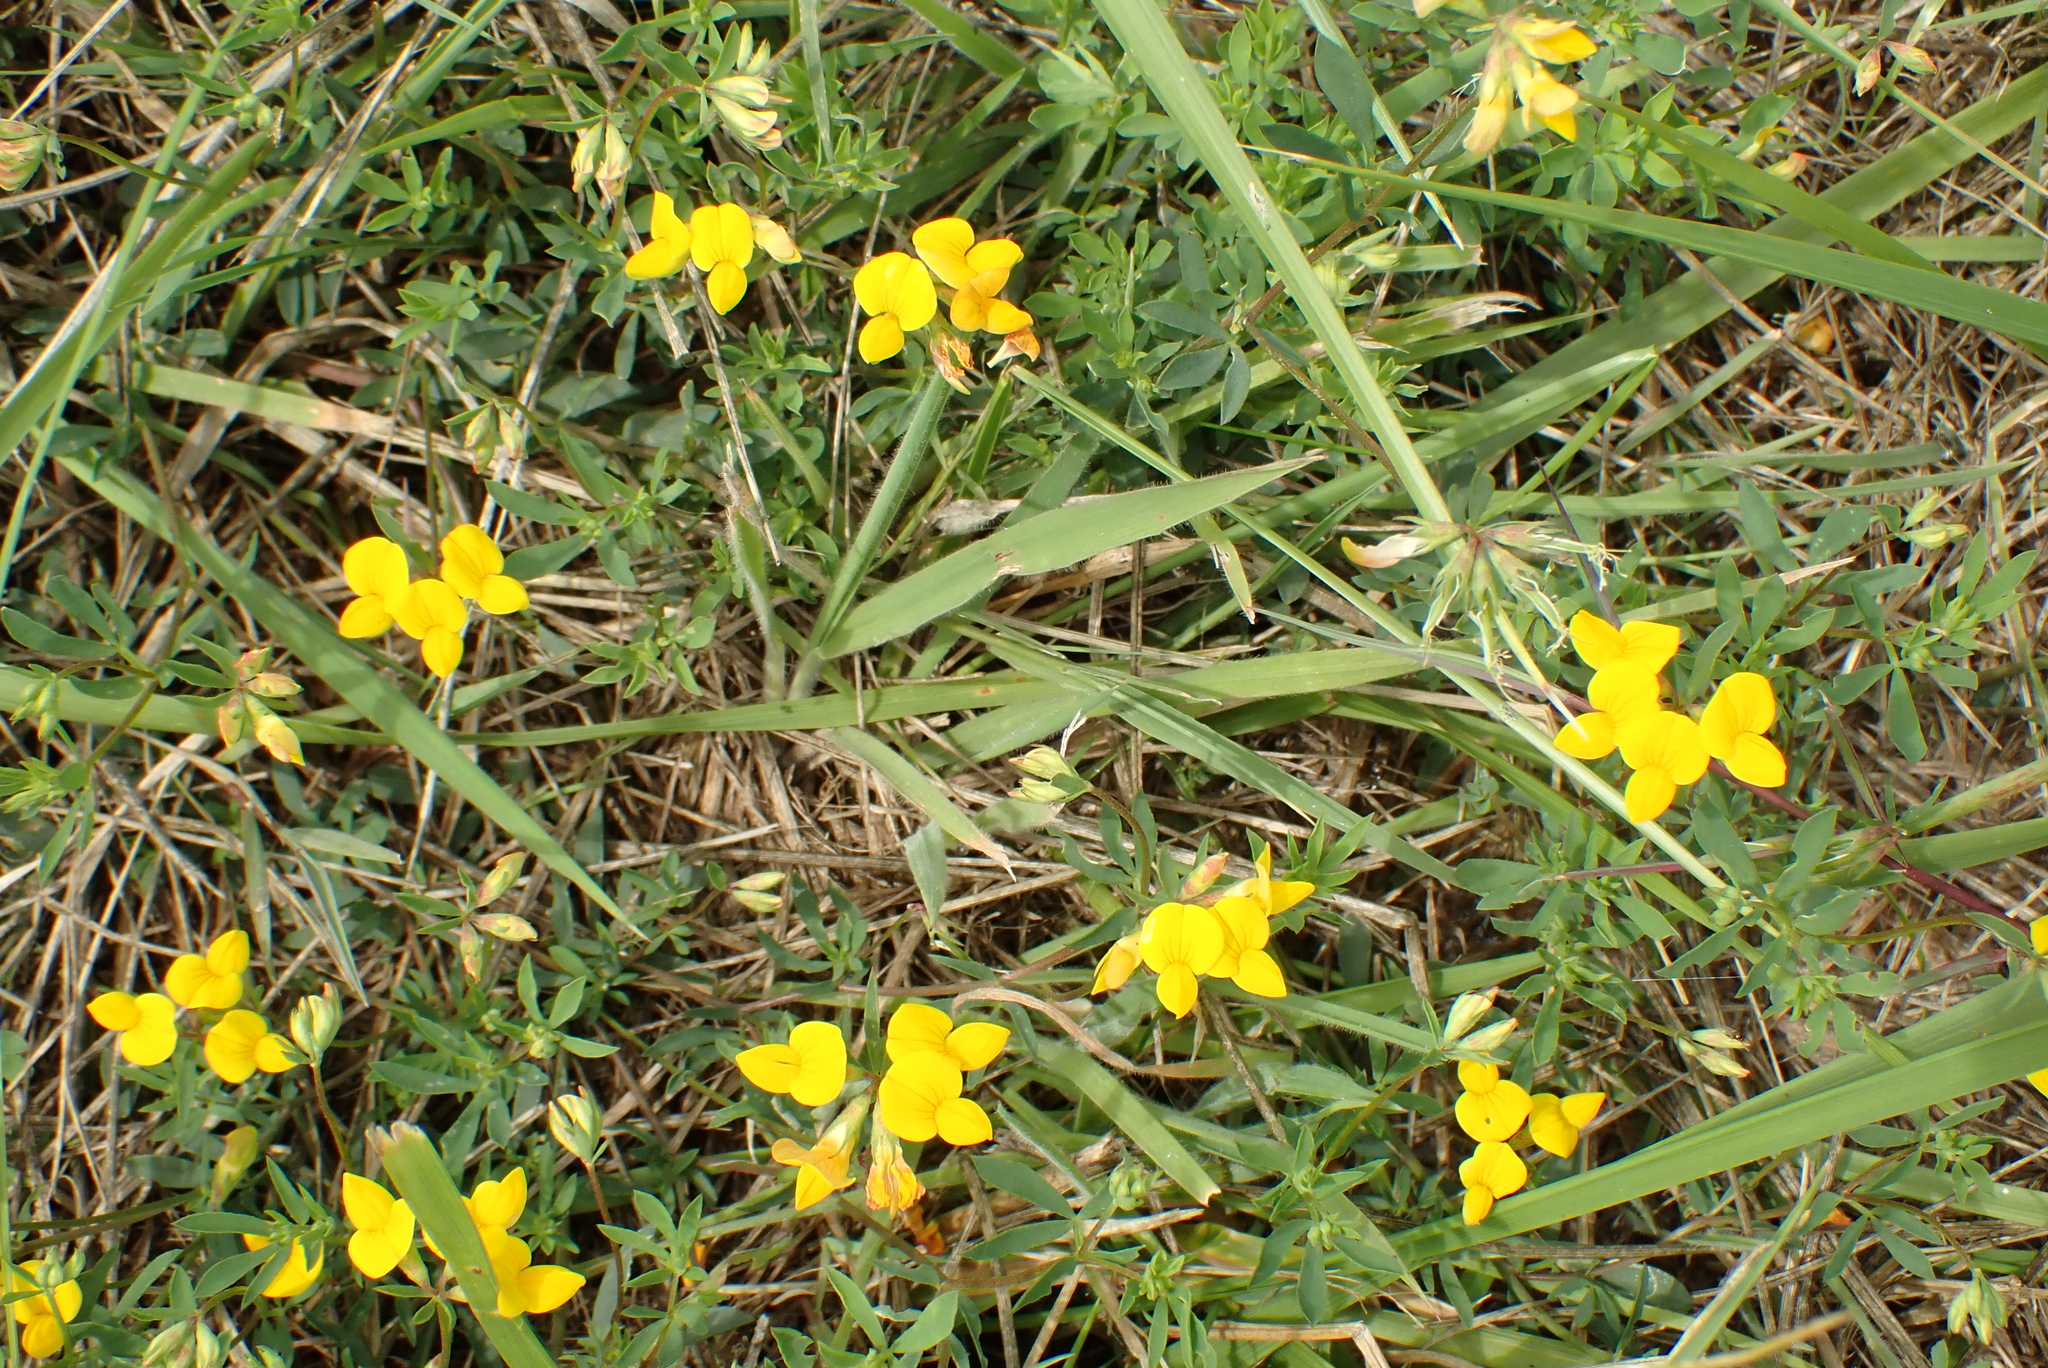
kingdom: Plantae
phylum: Tracheophyta
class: Magnoliopsida
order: Fabales
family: Fabaceae
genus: Lotus
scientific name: Lotus tenuis
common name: Narrow-leaved bird's-foot-trefoil
